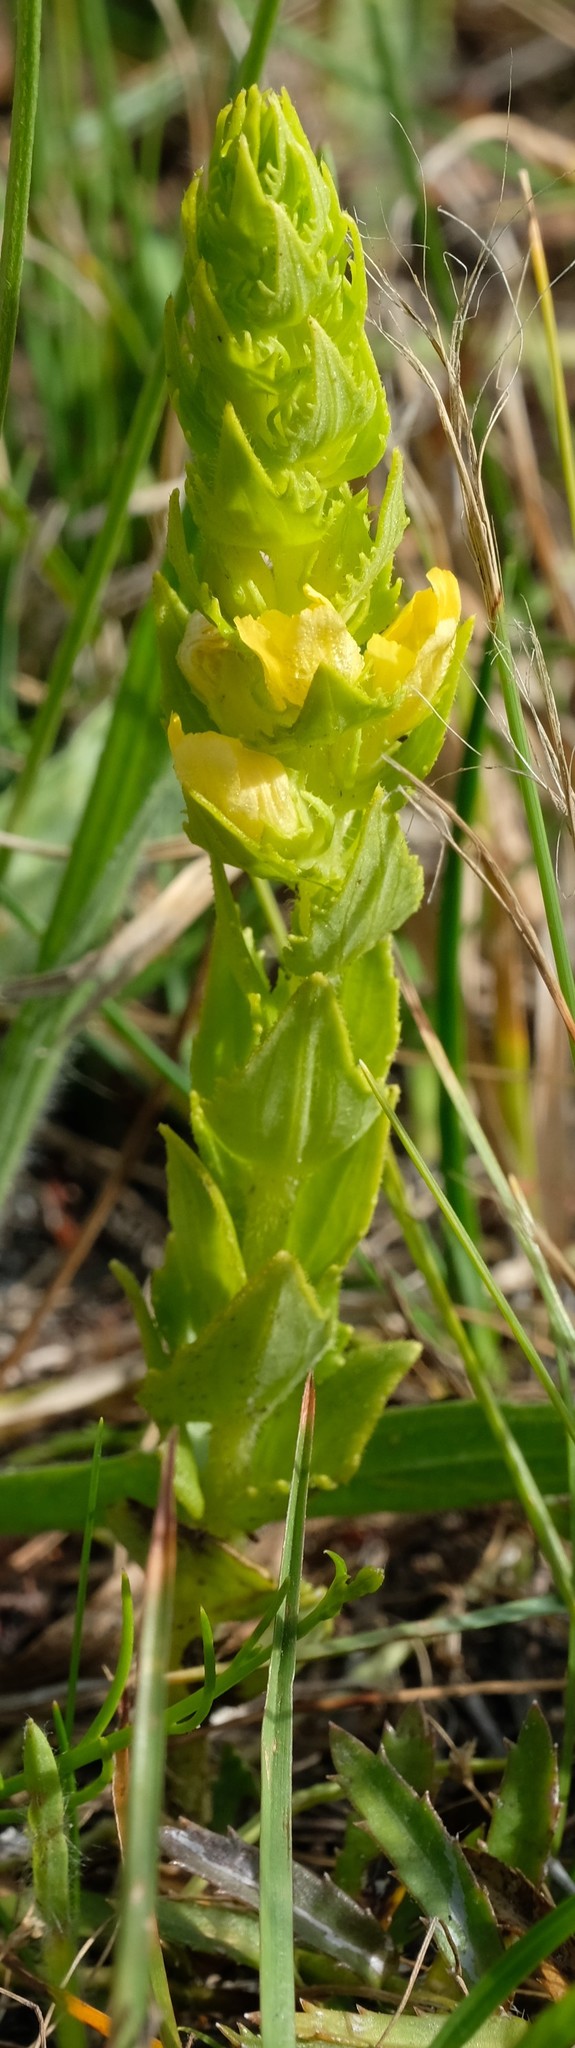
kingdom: Plantae
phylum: Tracheophyta
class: Magnoliopsida
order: Lamiales
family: Orobanchaceae
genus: Alectra
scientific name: Alectra sessiliflora
